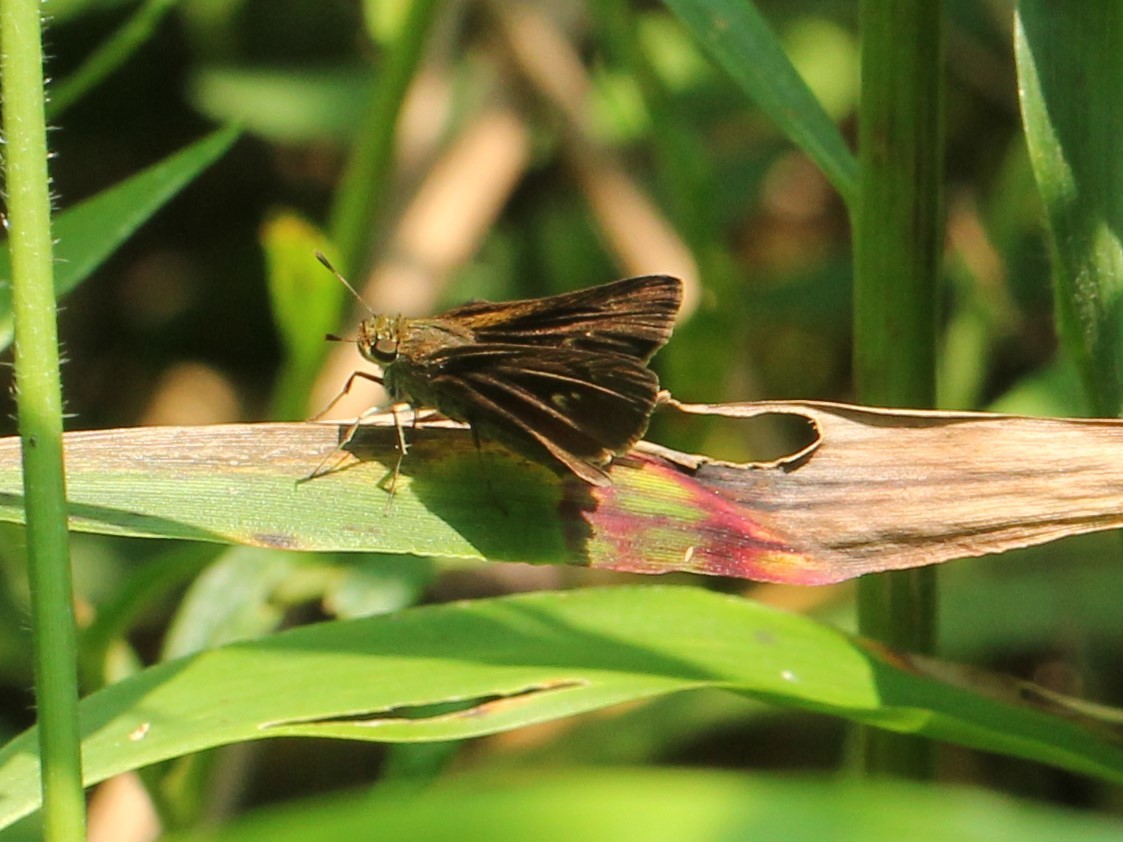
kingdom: Animalia
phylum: Arthropoda
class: Insecta
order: Lepidoptera
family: Hesperiidae
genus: Euphyes
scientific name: Euphyes vestris
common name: Dun skipper
